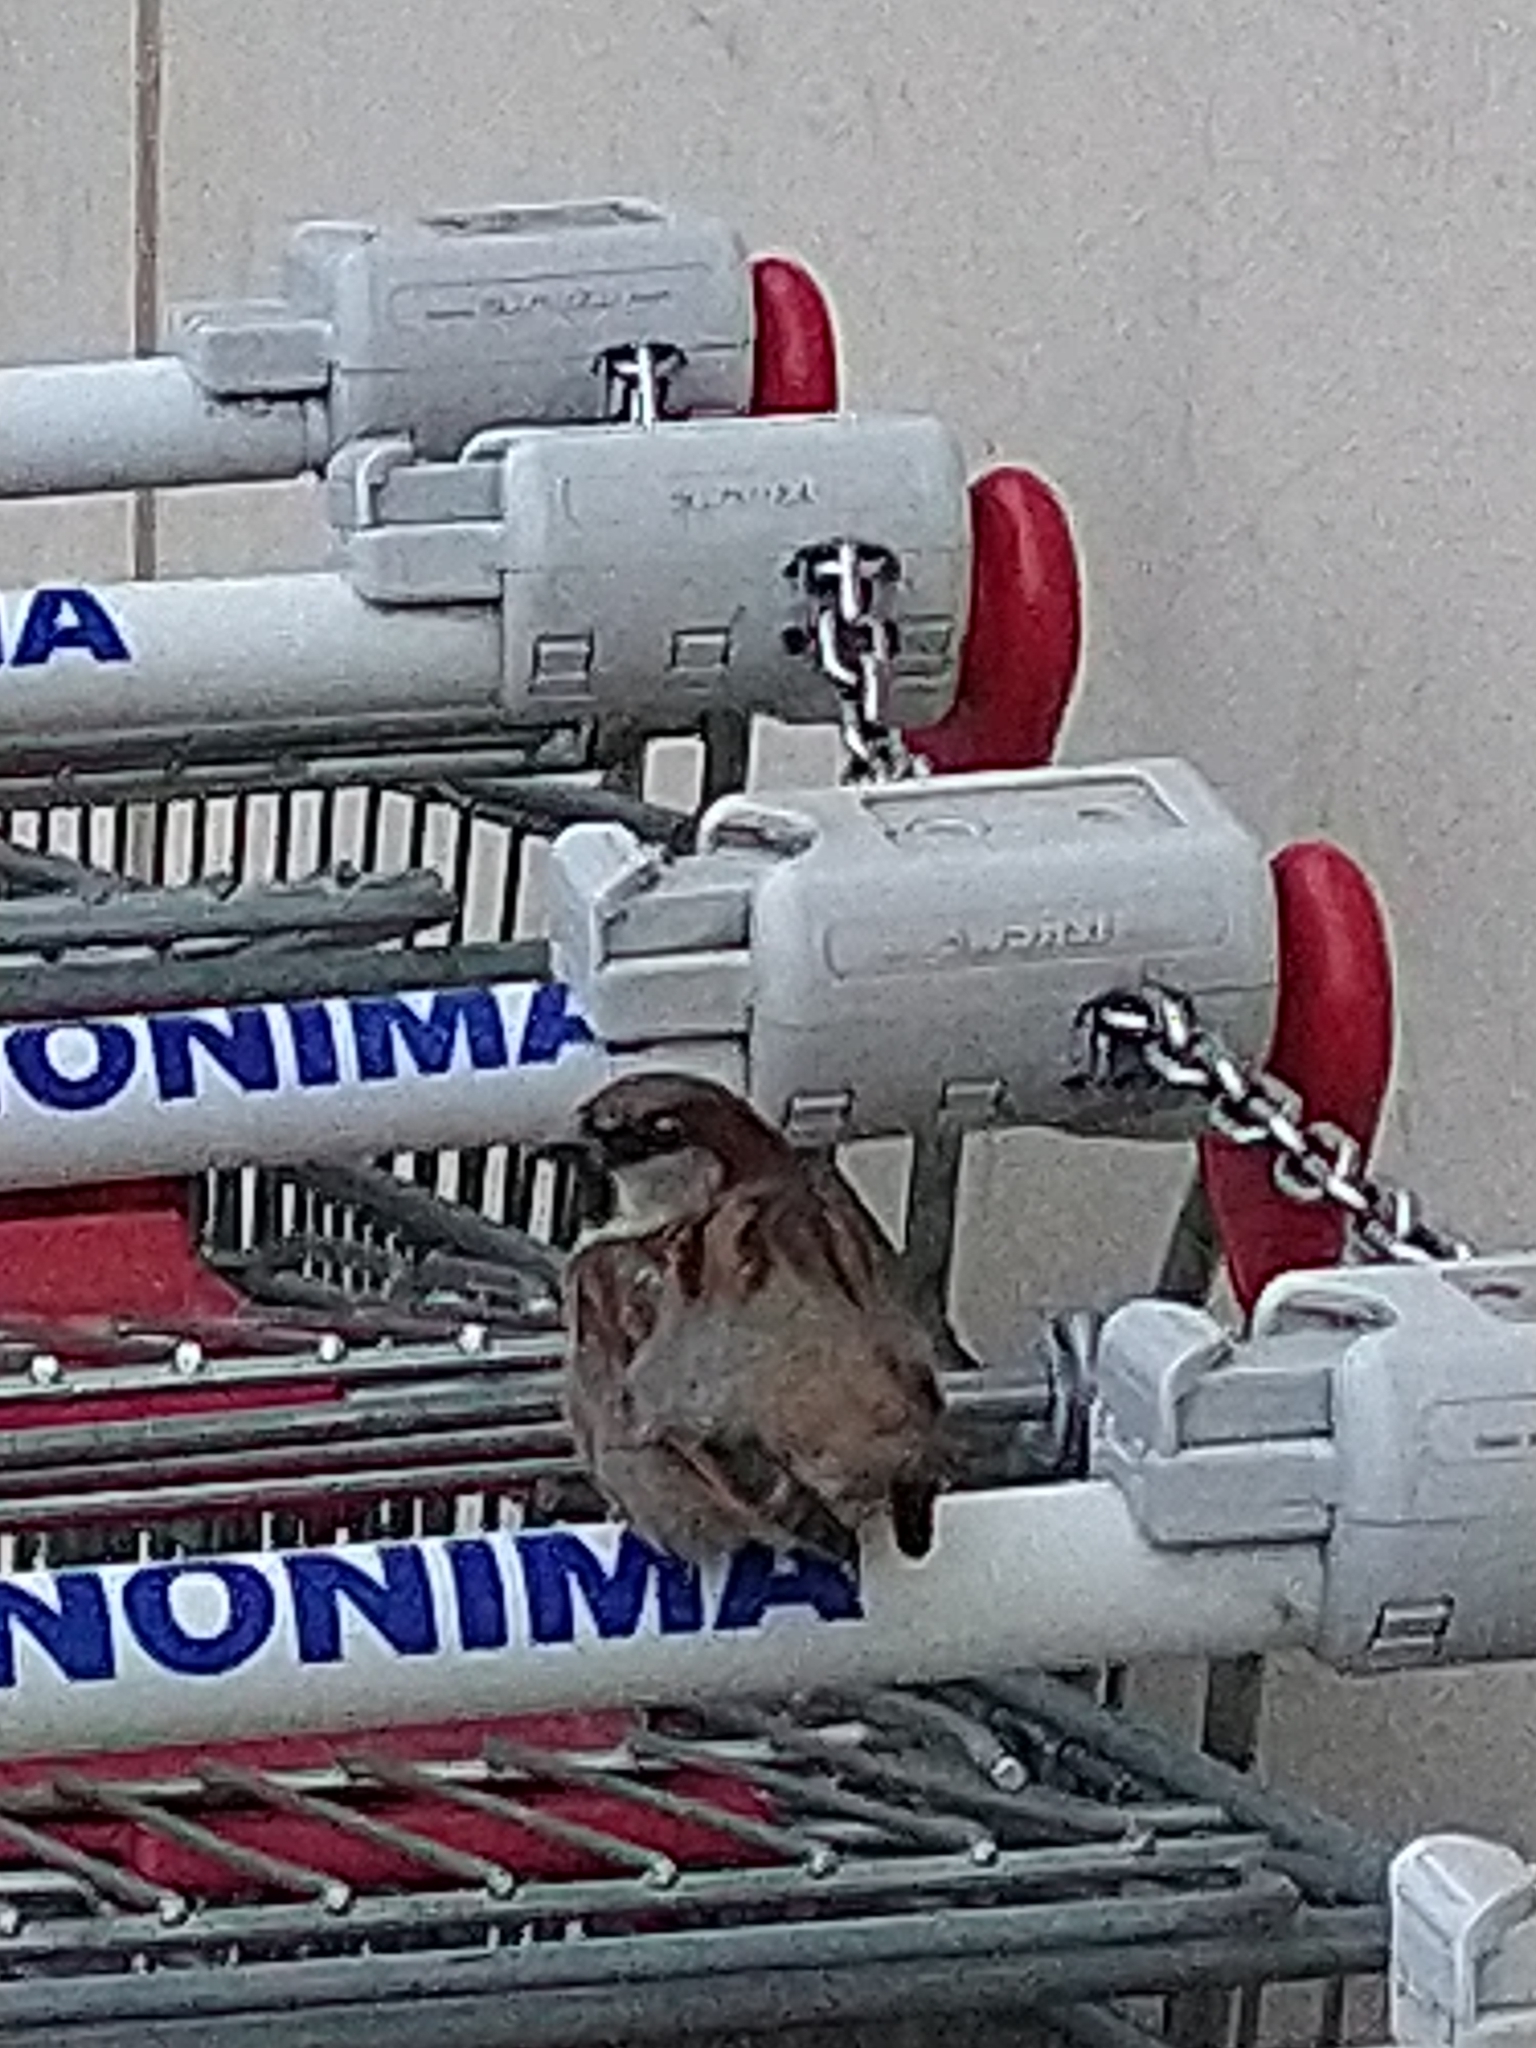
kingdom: Animalia
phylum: Chordata
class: Aves
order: Passeriformes
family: Passeridae
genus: Passer
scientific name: Passer domesticus
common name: House sparrow
